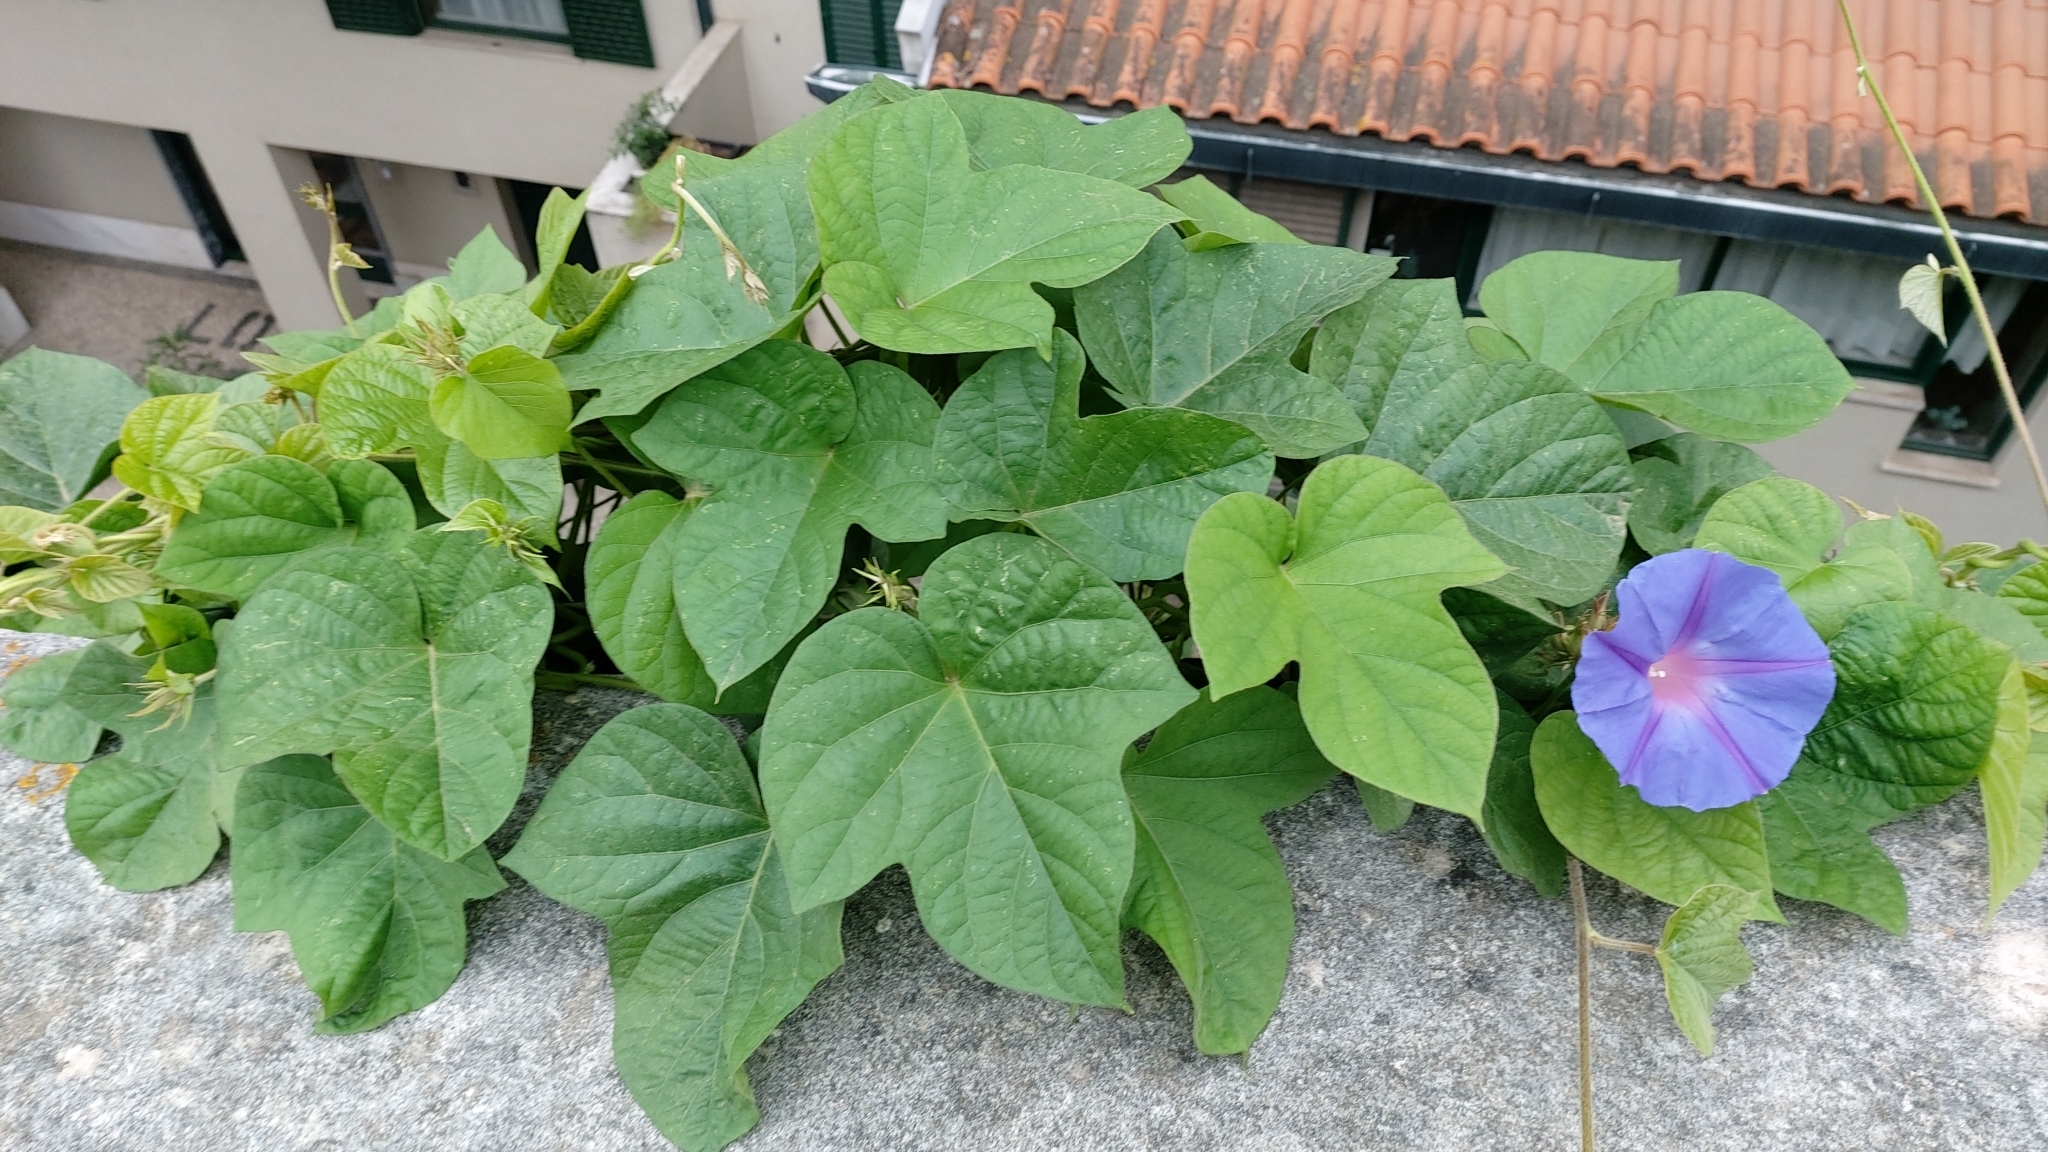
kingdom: Plantae
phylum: Tracheophyta
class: Magnoliopsida
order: Solanales
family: Convolvulaceae
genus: Ipomoea
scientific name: Ipomoea indica
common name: Blue dawnflower
